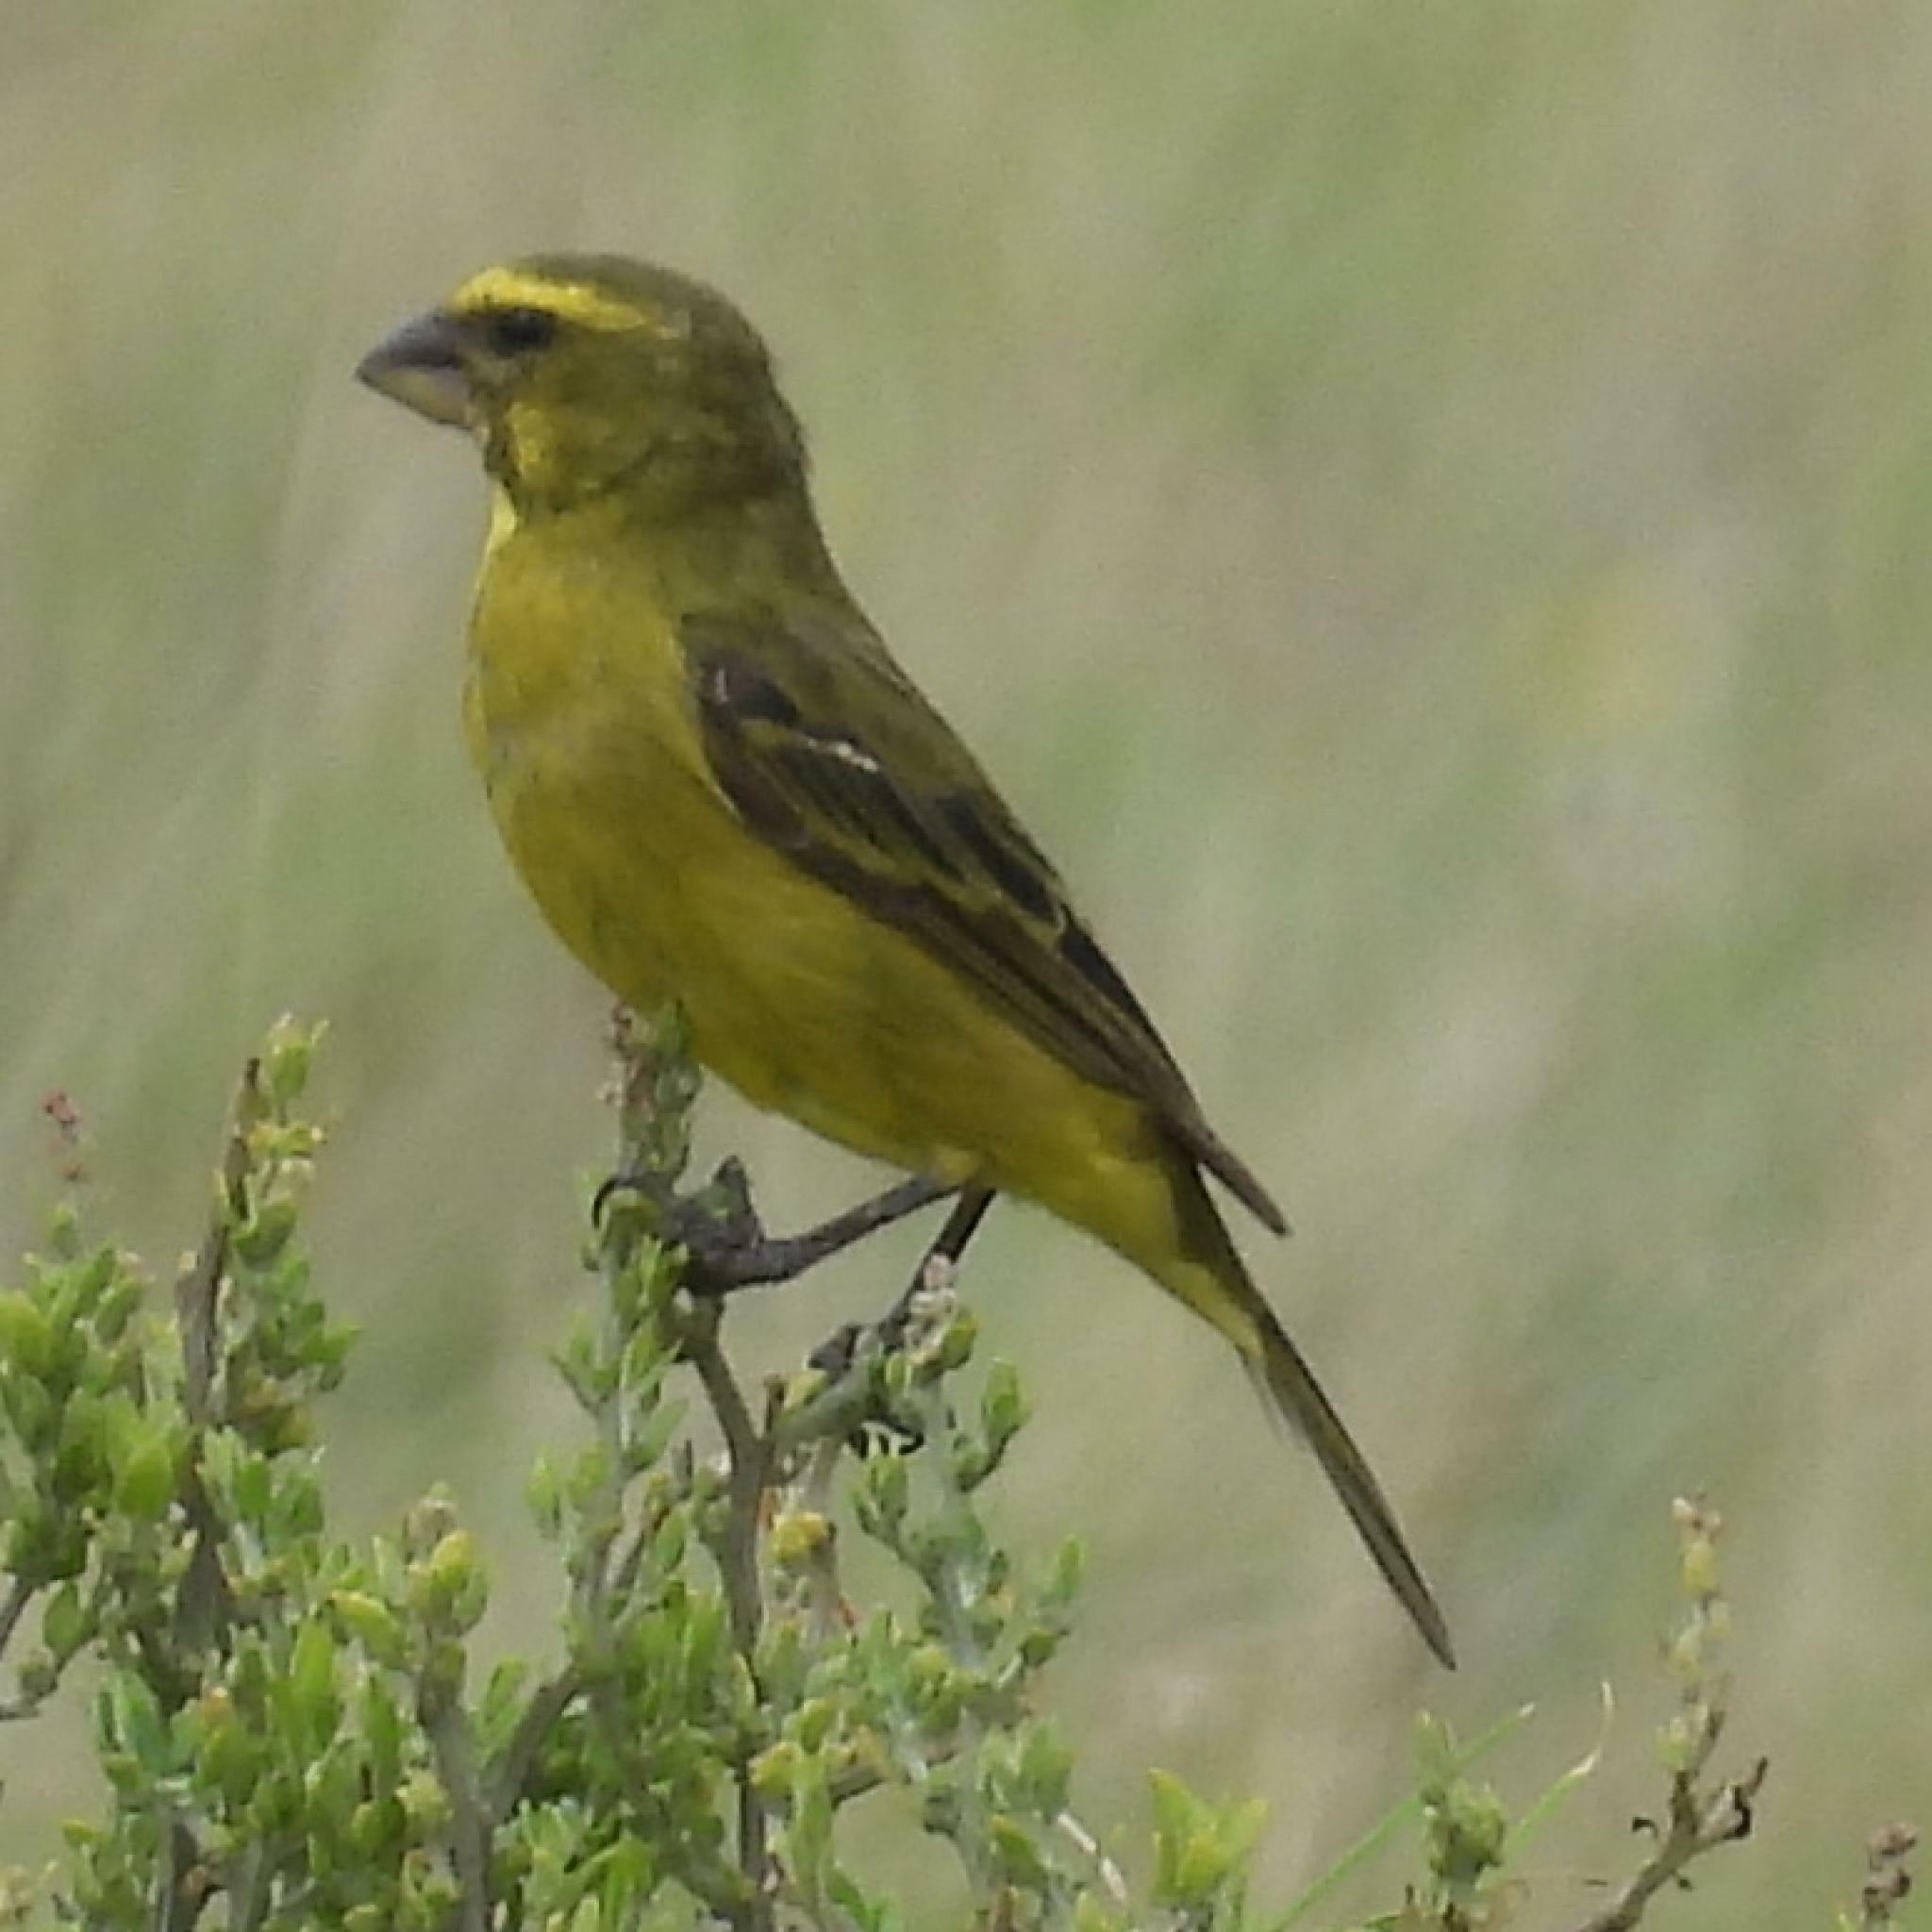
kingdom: Animalia
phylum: Chordata
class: Aves
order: Passeriformes
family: Fringillidae
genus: Crithagra
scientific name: Crithagra sulphurata
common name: Brimstone canary
